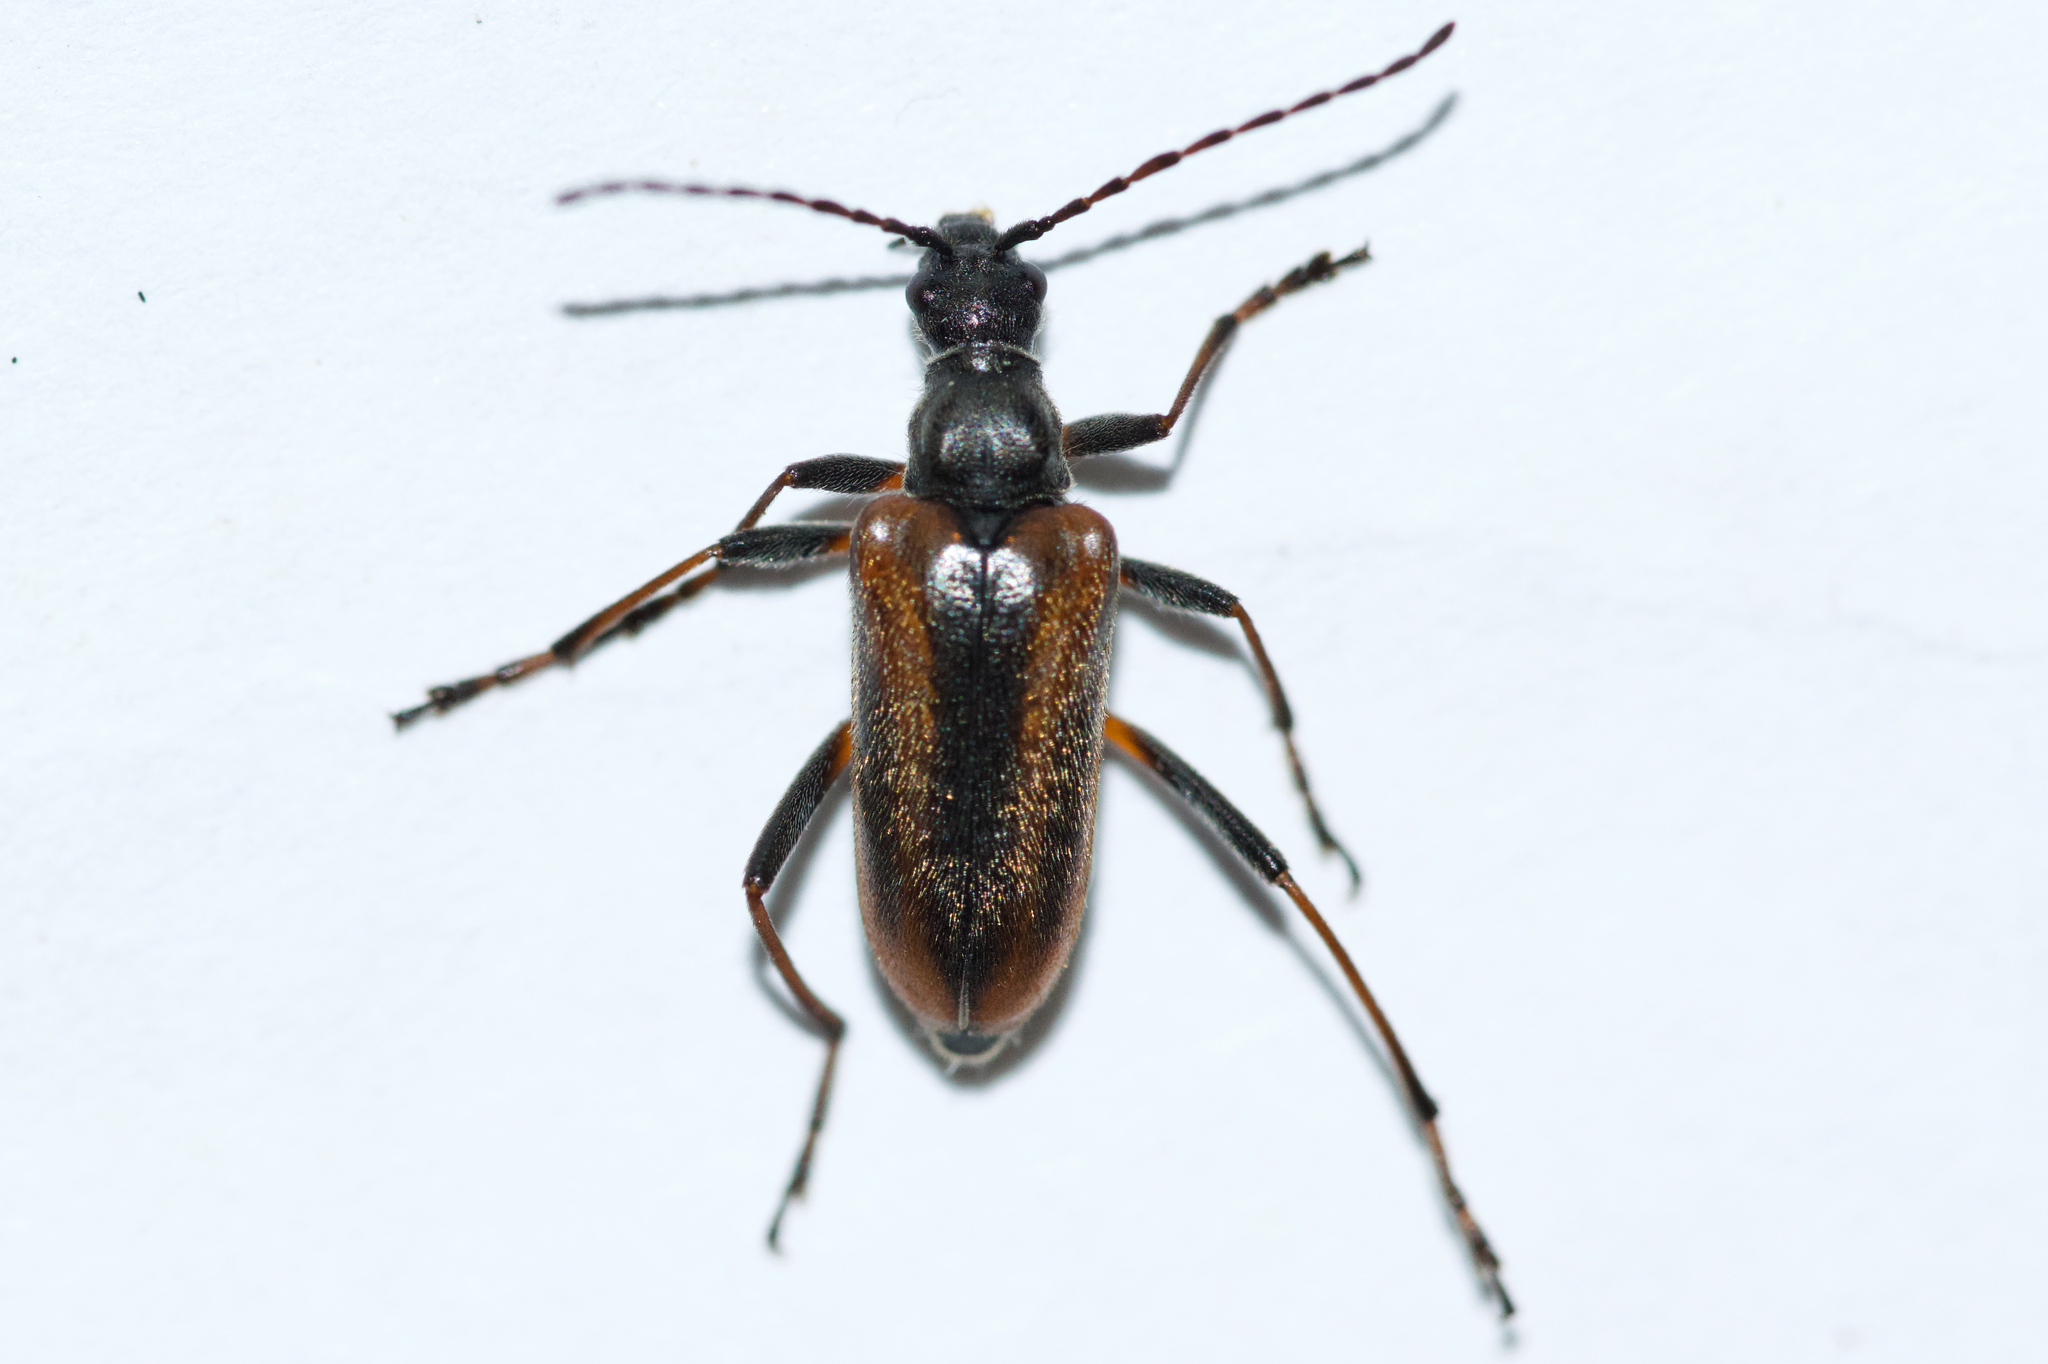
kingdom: Animalia
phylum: Arthropoda
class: Insecta
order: Coleoptera
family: Cerambycidae
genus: Acmaeops
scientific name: Acmaeops proteus
